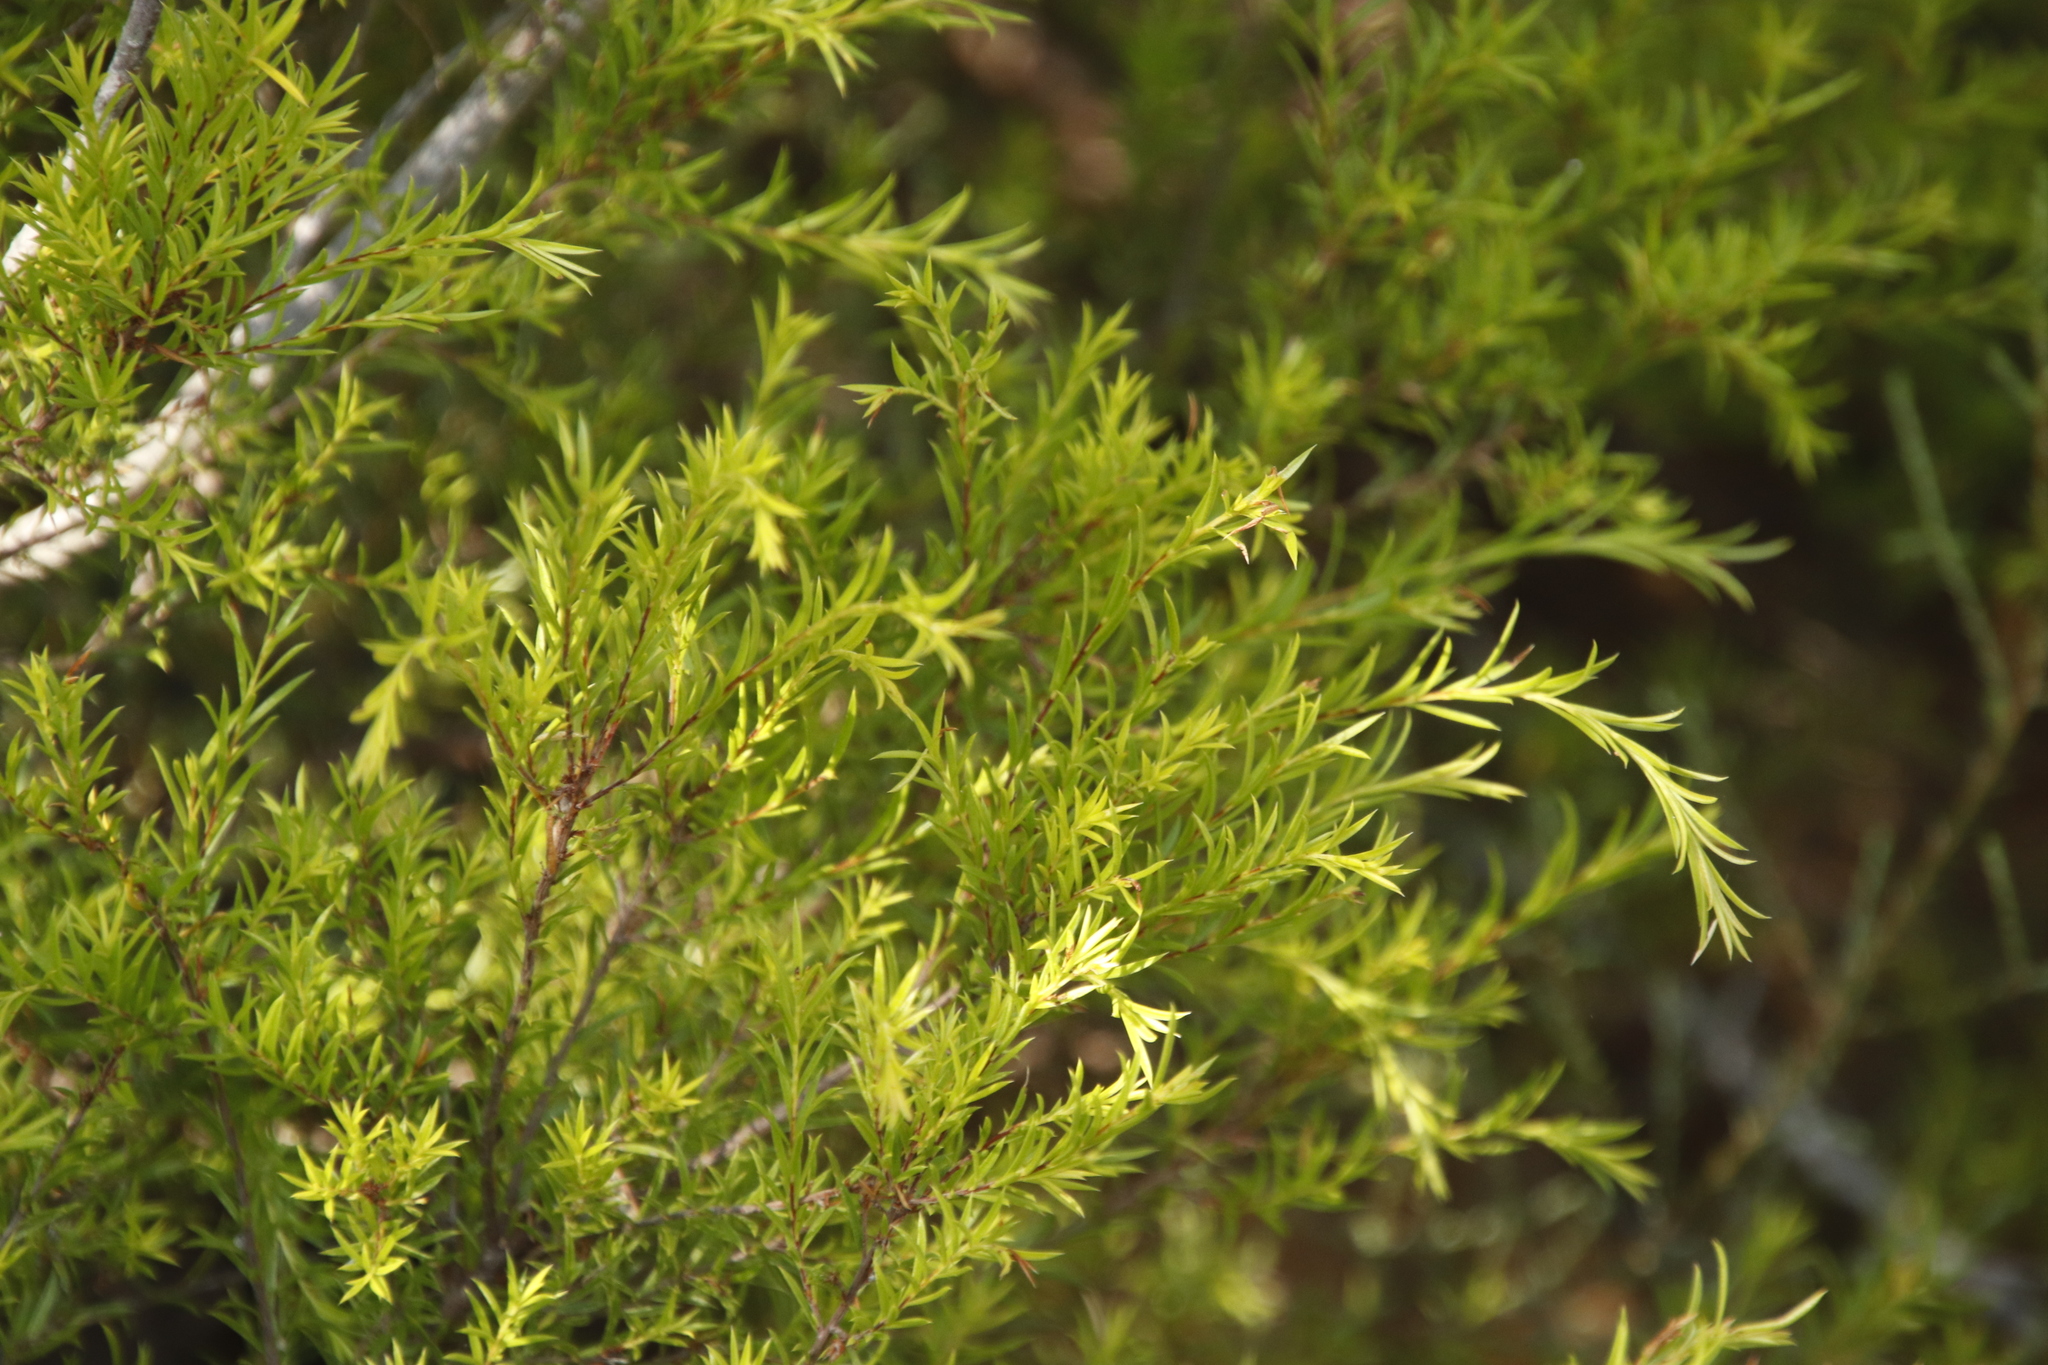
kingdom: Plantae
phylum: Tracheophyta
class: Magnoliopsida
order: Sapindales
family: Rutaceae
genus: Coleonema
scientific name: Coleonema album
